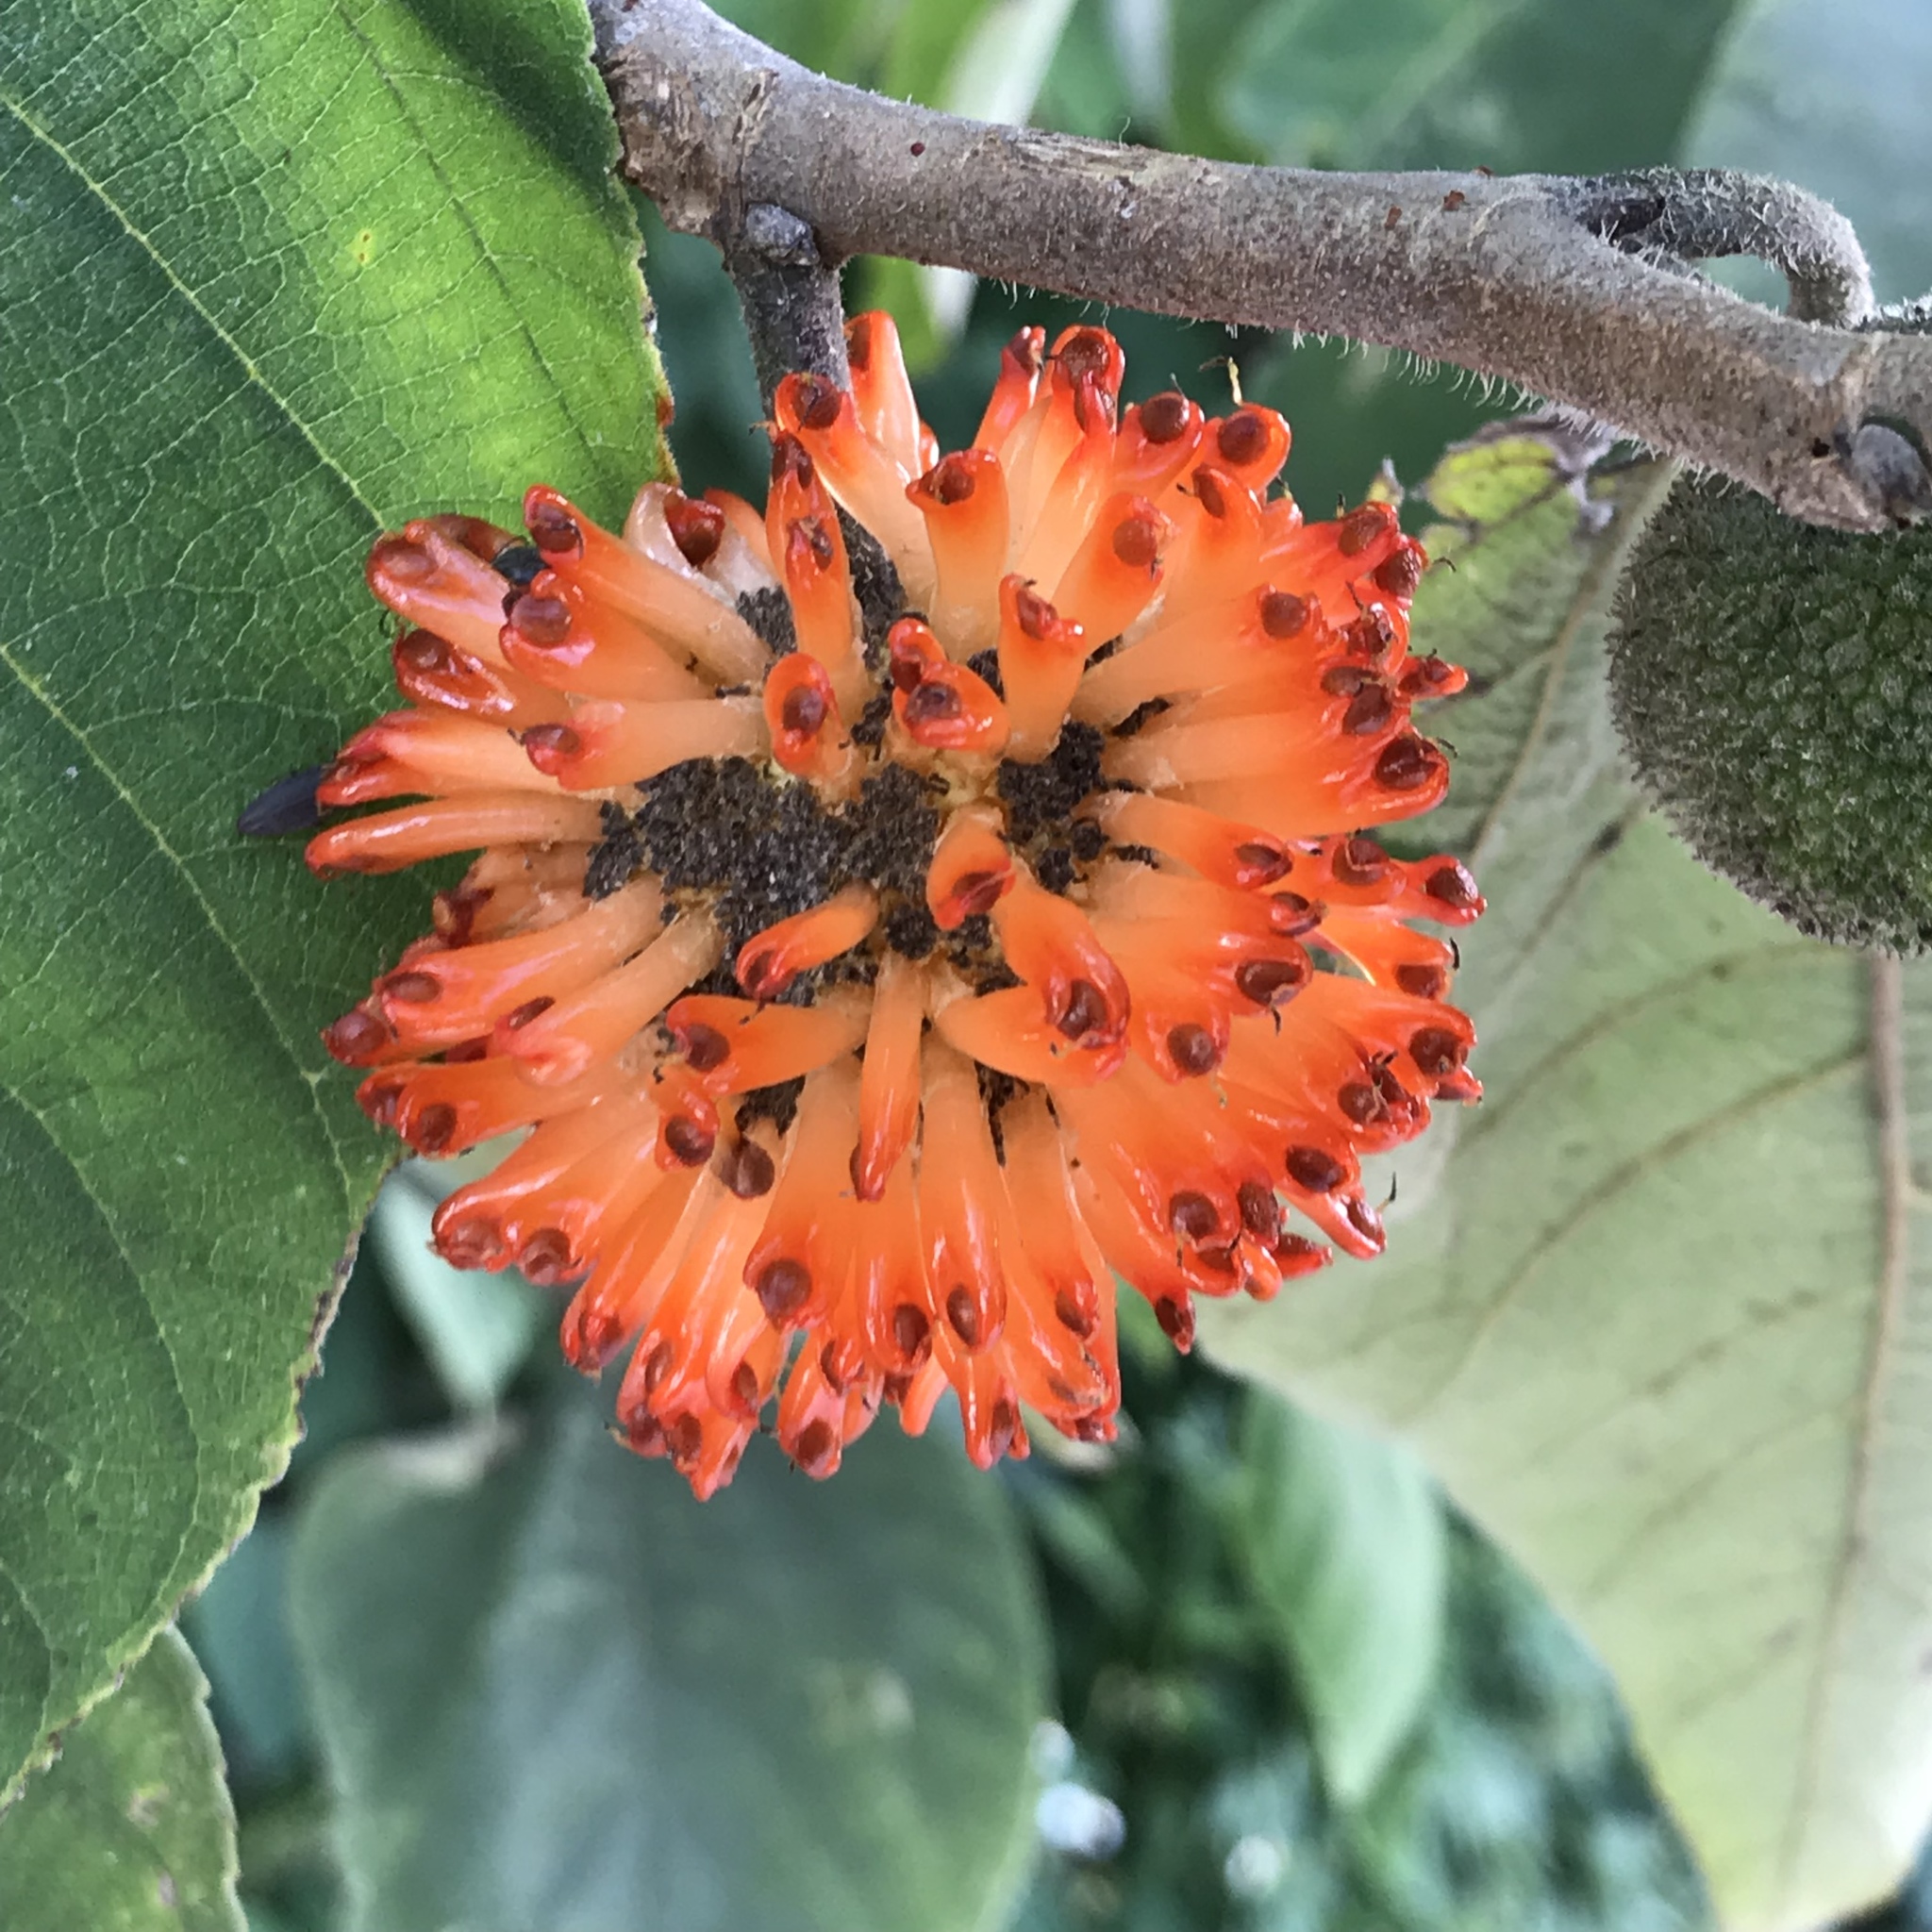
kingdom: Plantae
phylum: Tracheophyta
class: Magnoliopsida
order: Rosales
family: Moraceae
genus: Broussonetia
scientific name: Broussonetia papyrifera
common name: Paper mulberry
